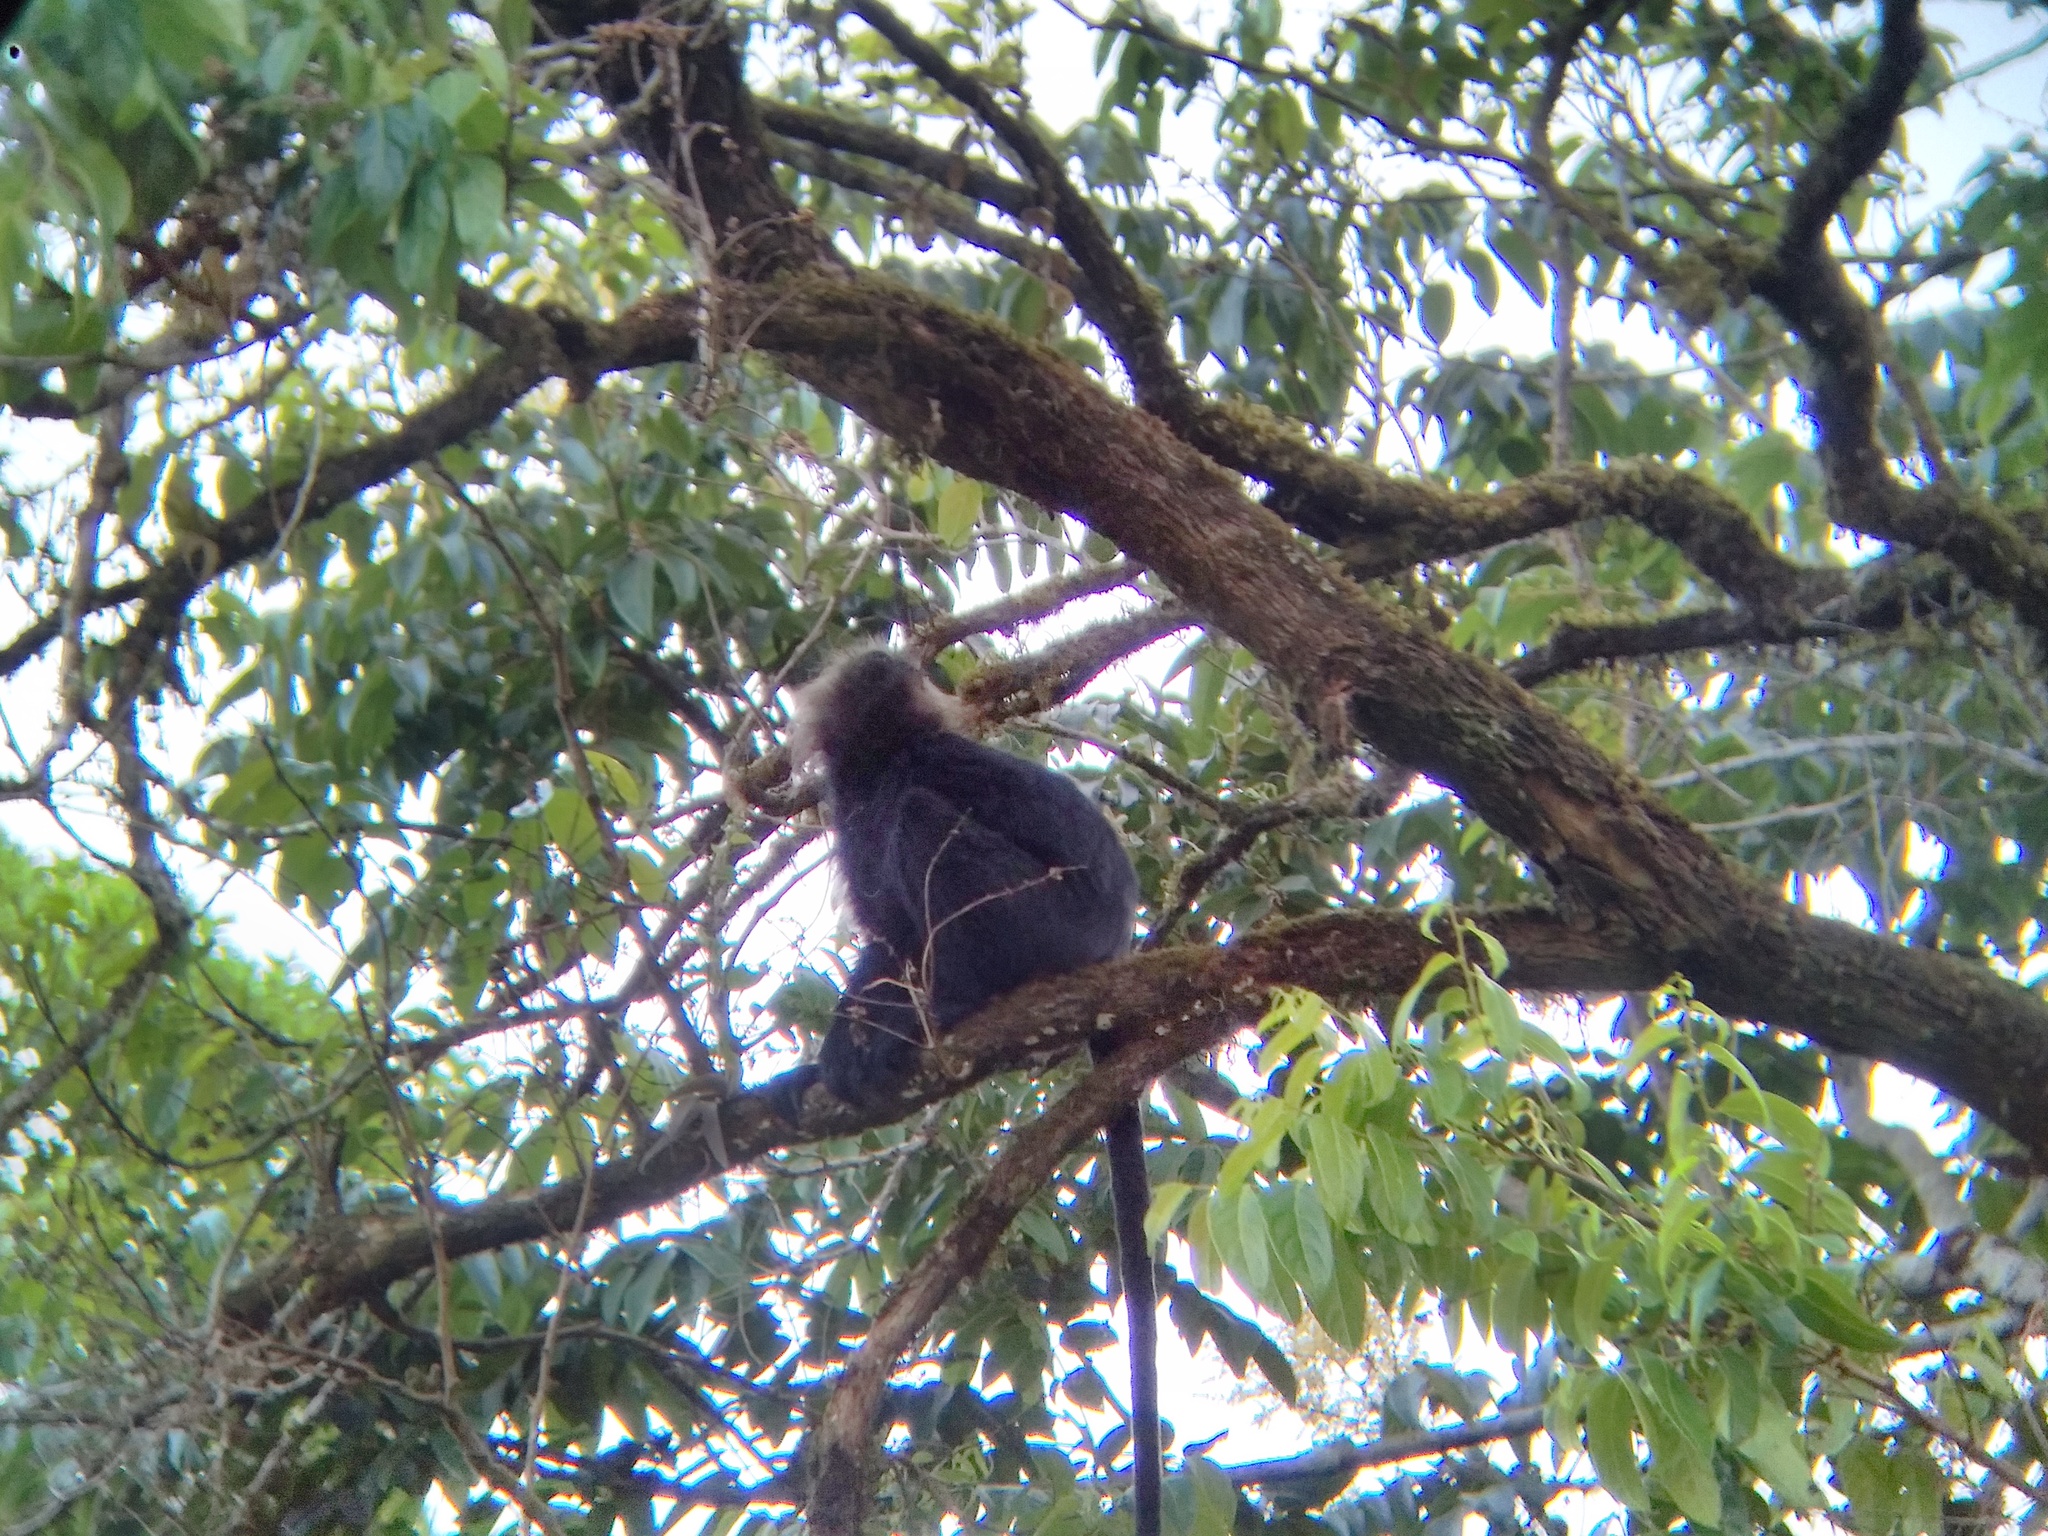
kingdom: Animalia
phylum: Chordata
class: Mammalia
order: Primates
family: Cercopithecidae
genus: Semnopithecus
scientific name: Semnopithecus johnii
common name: Nilgiri langur
